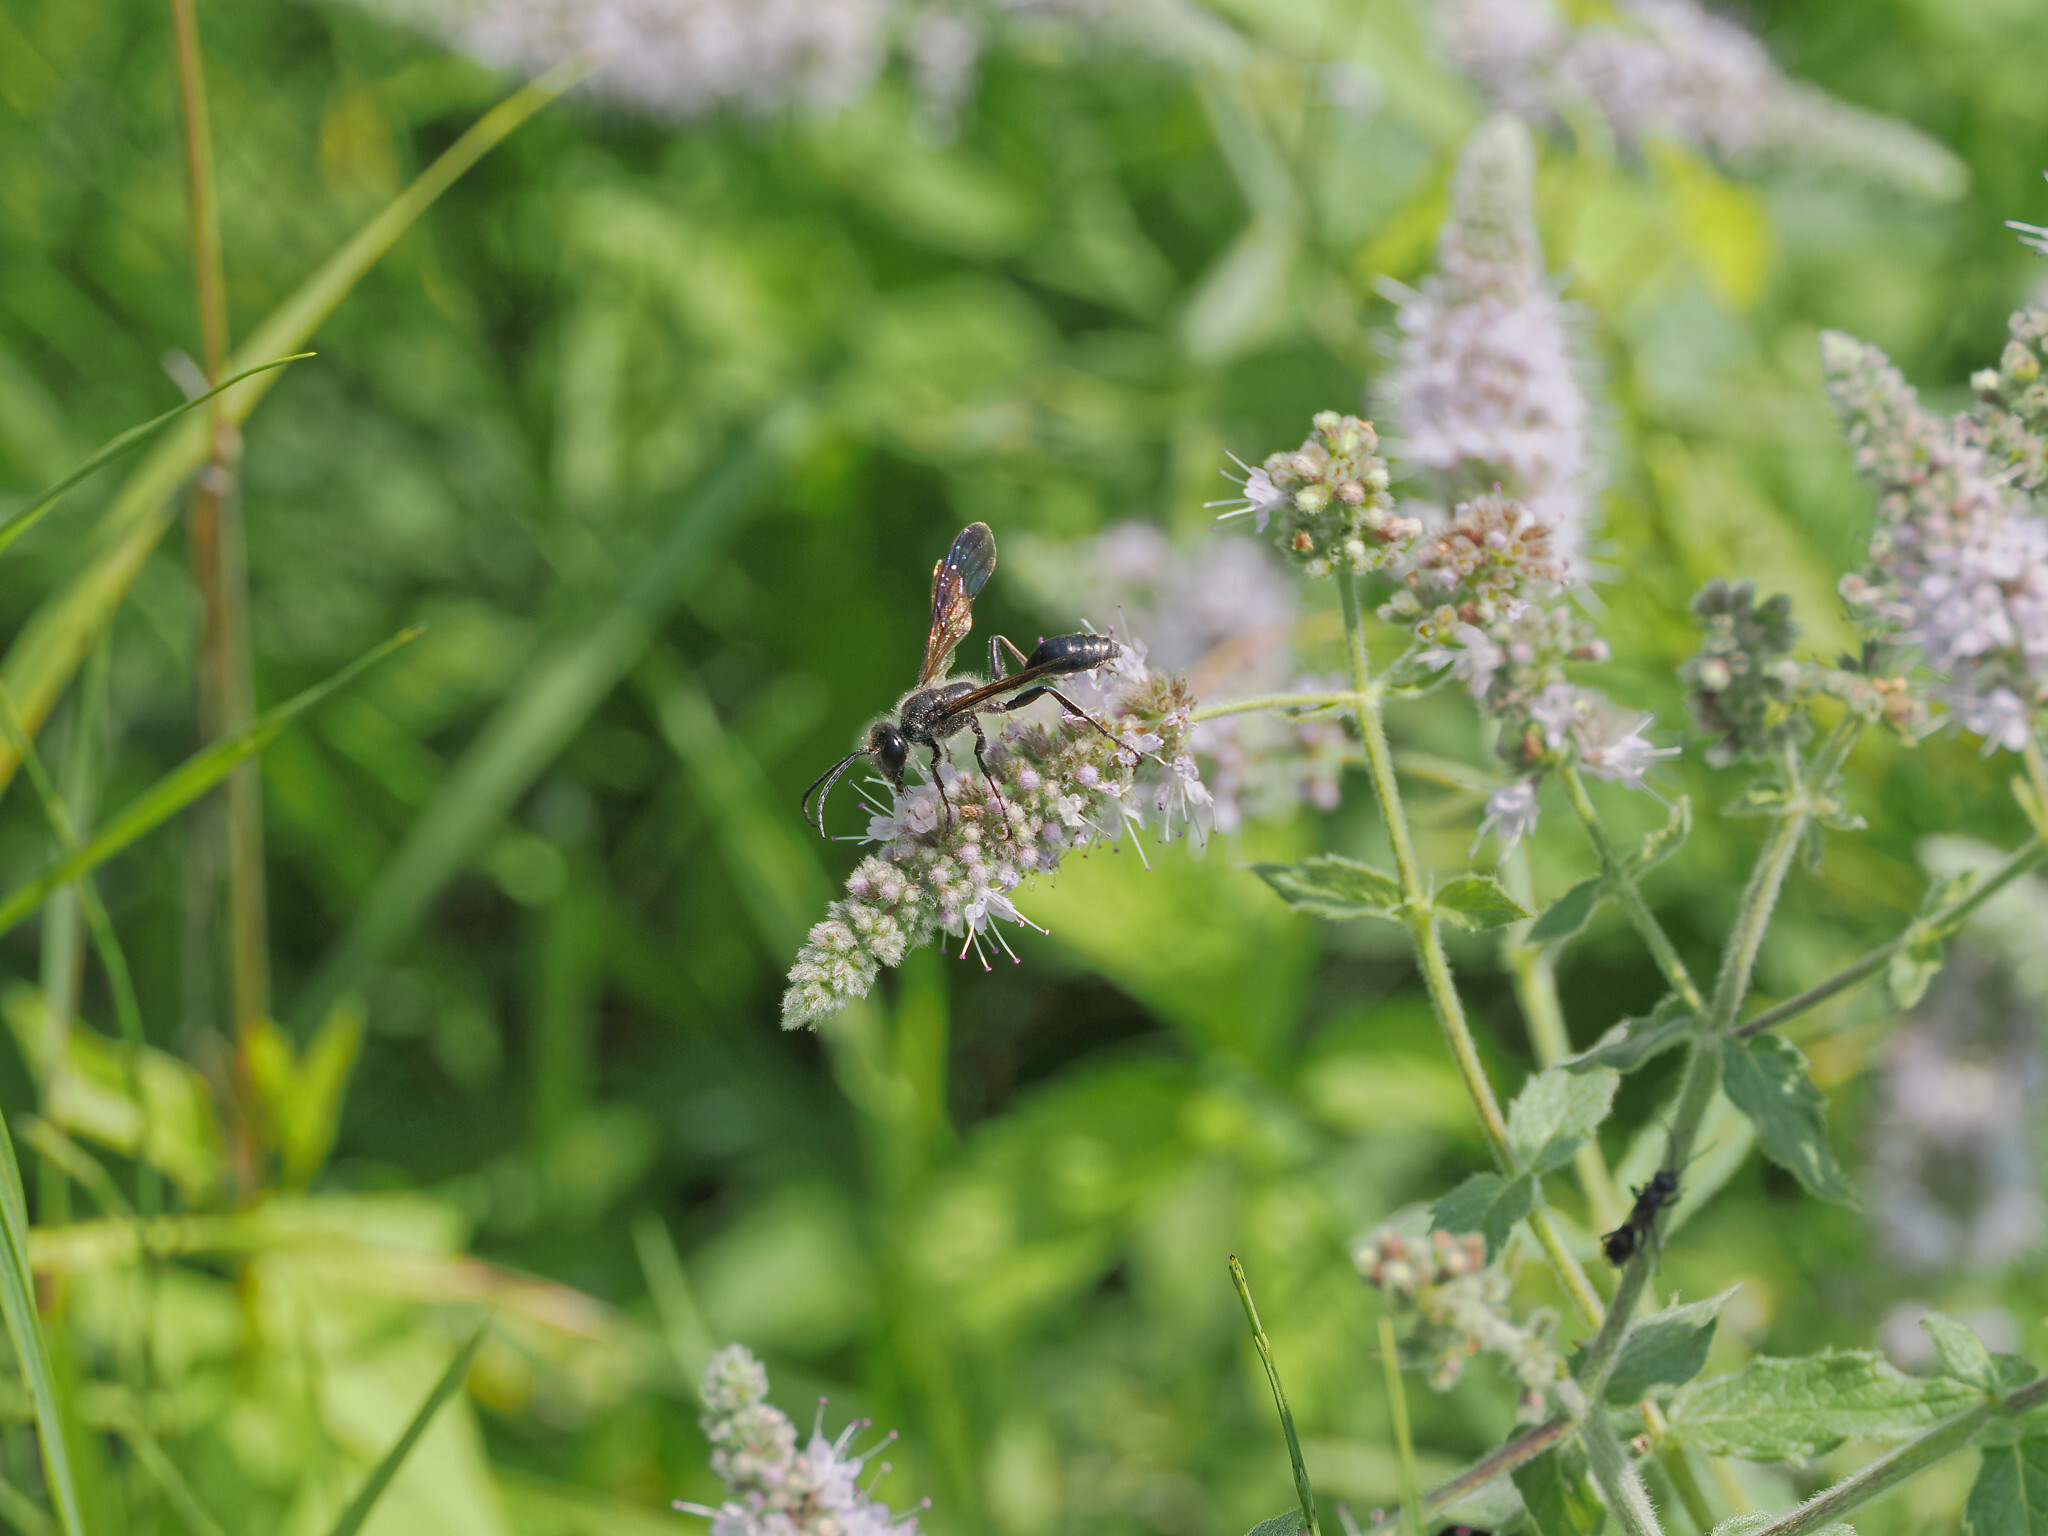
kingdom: Animalia
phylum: Arthropoda
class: Insecta
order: Hymenoptera
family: Sphecidae
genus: Isodontia
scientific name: Isodontia mexicana
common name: Mud dauber
